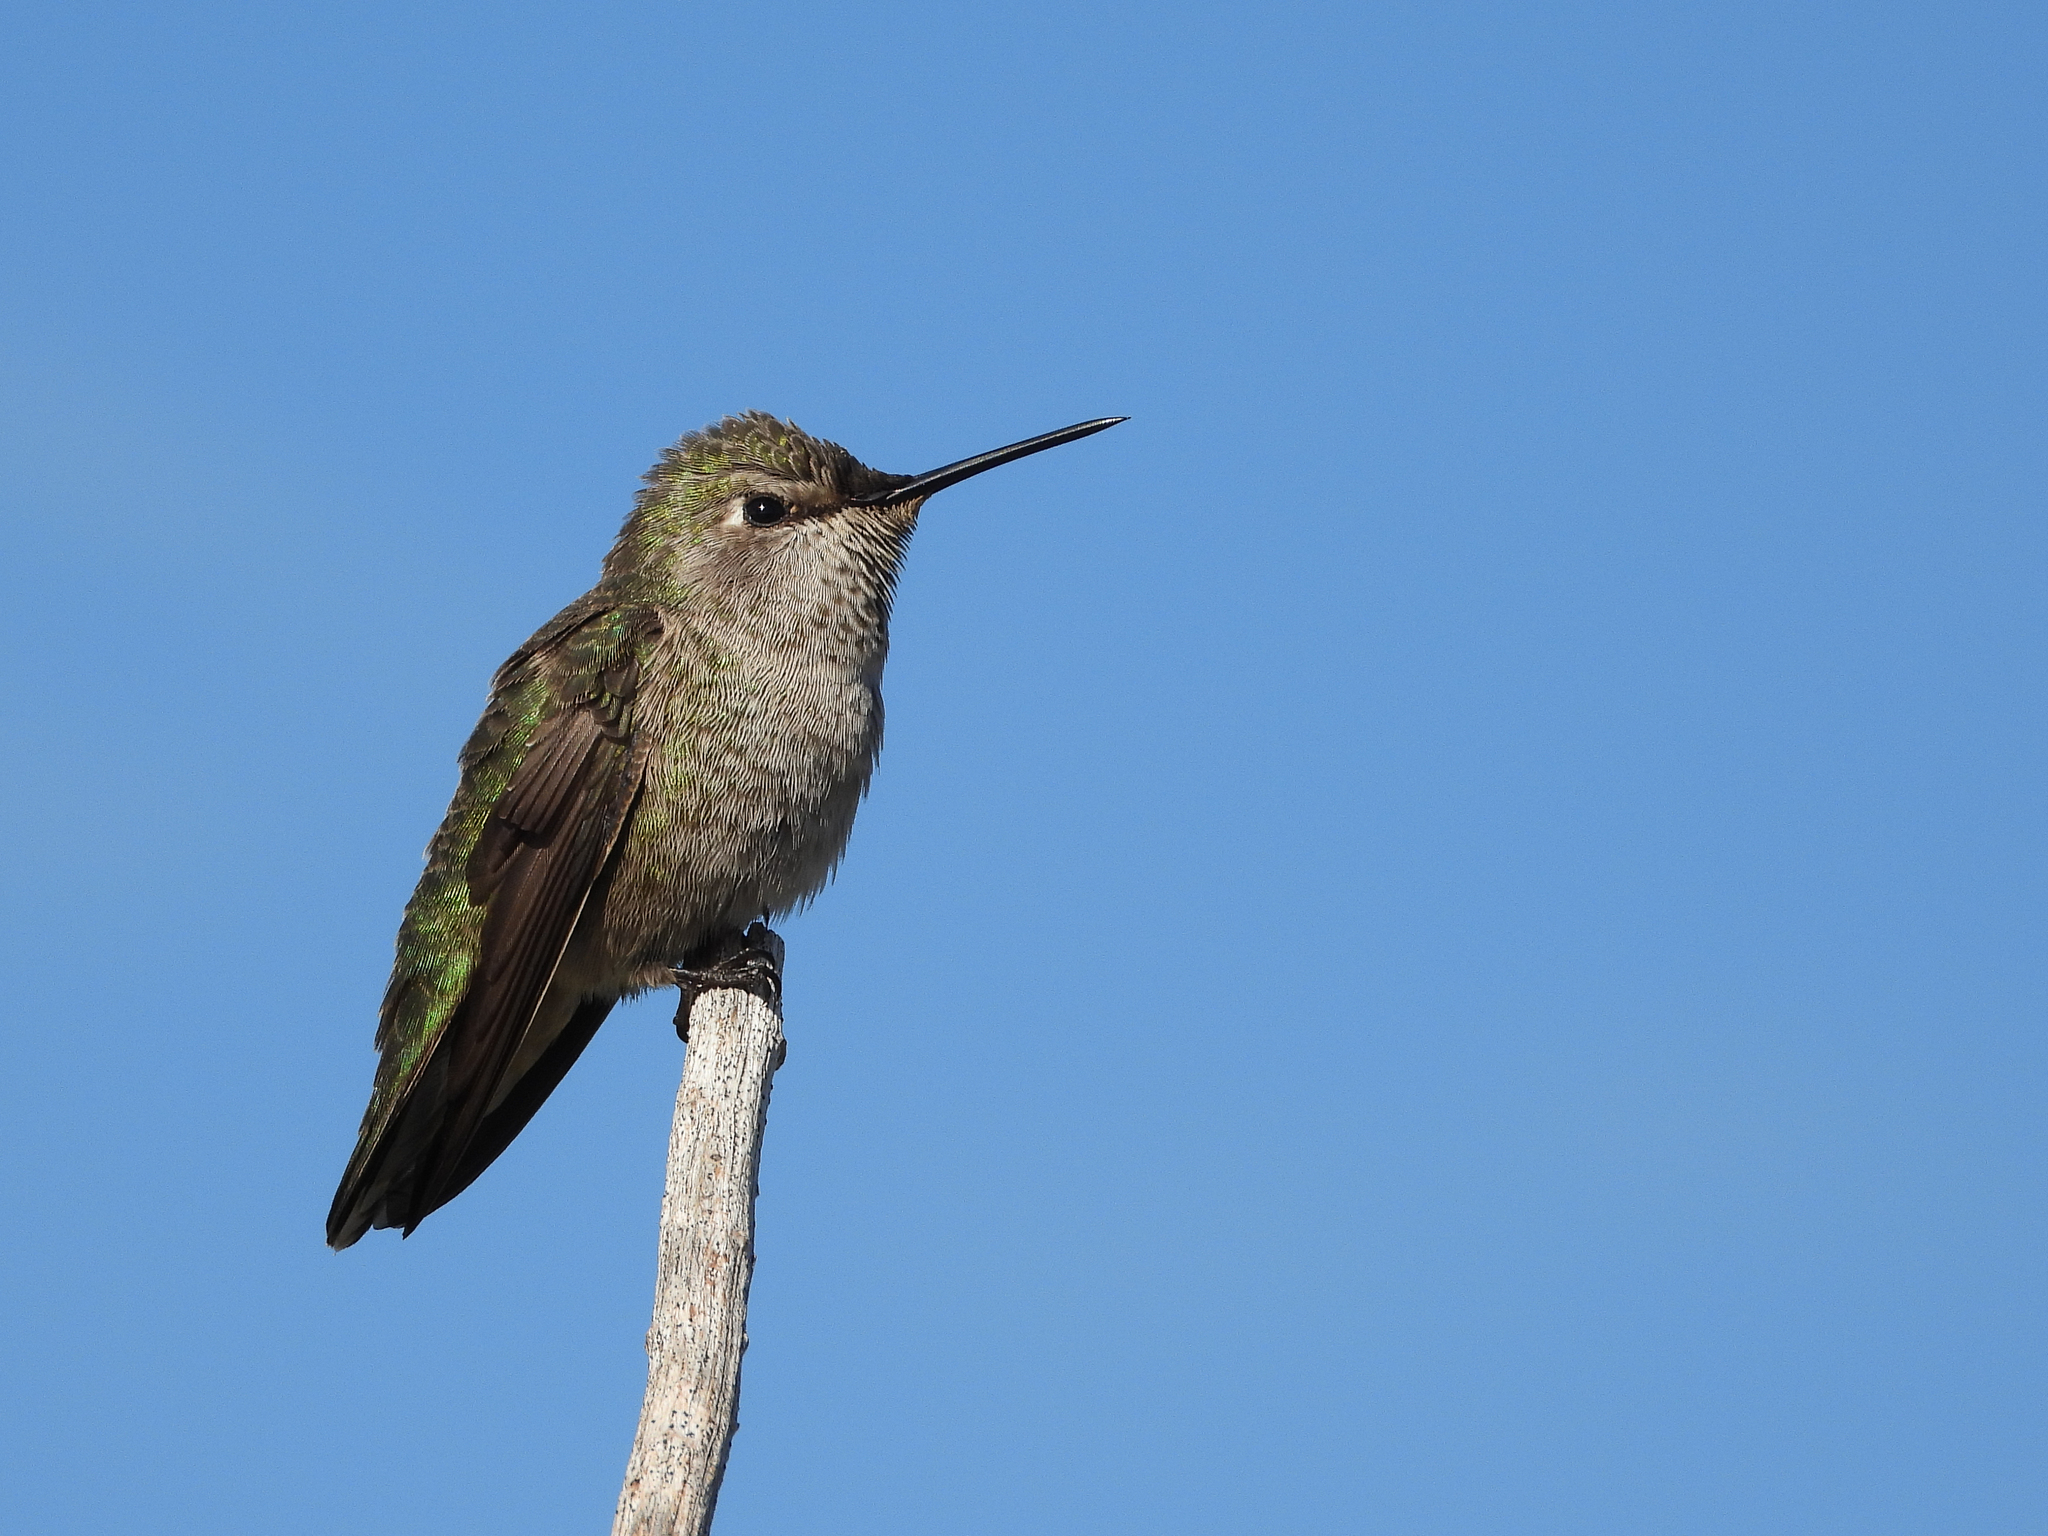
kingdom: Animalia
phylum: Chordata
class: Aves
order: Apodiformes
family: Trochilidae
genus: Calypte
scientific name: Calypte anna
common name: Anna's hummingbird
